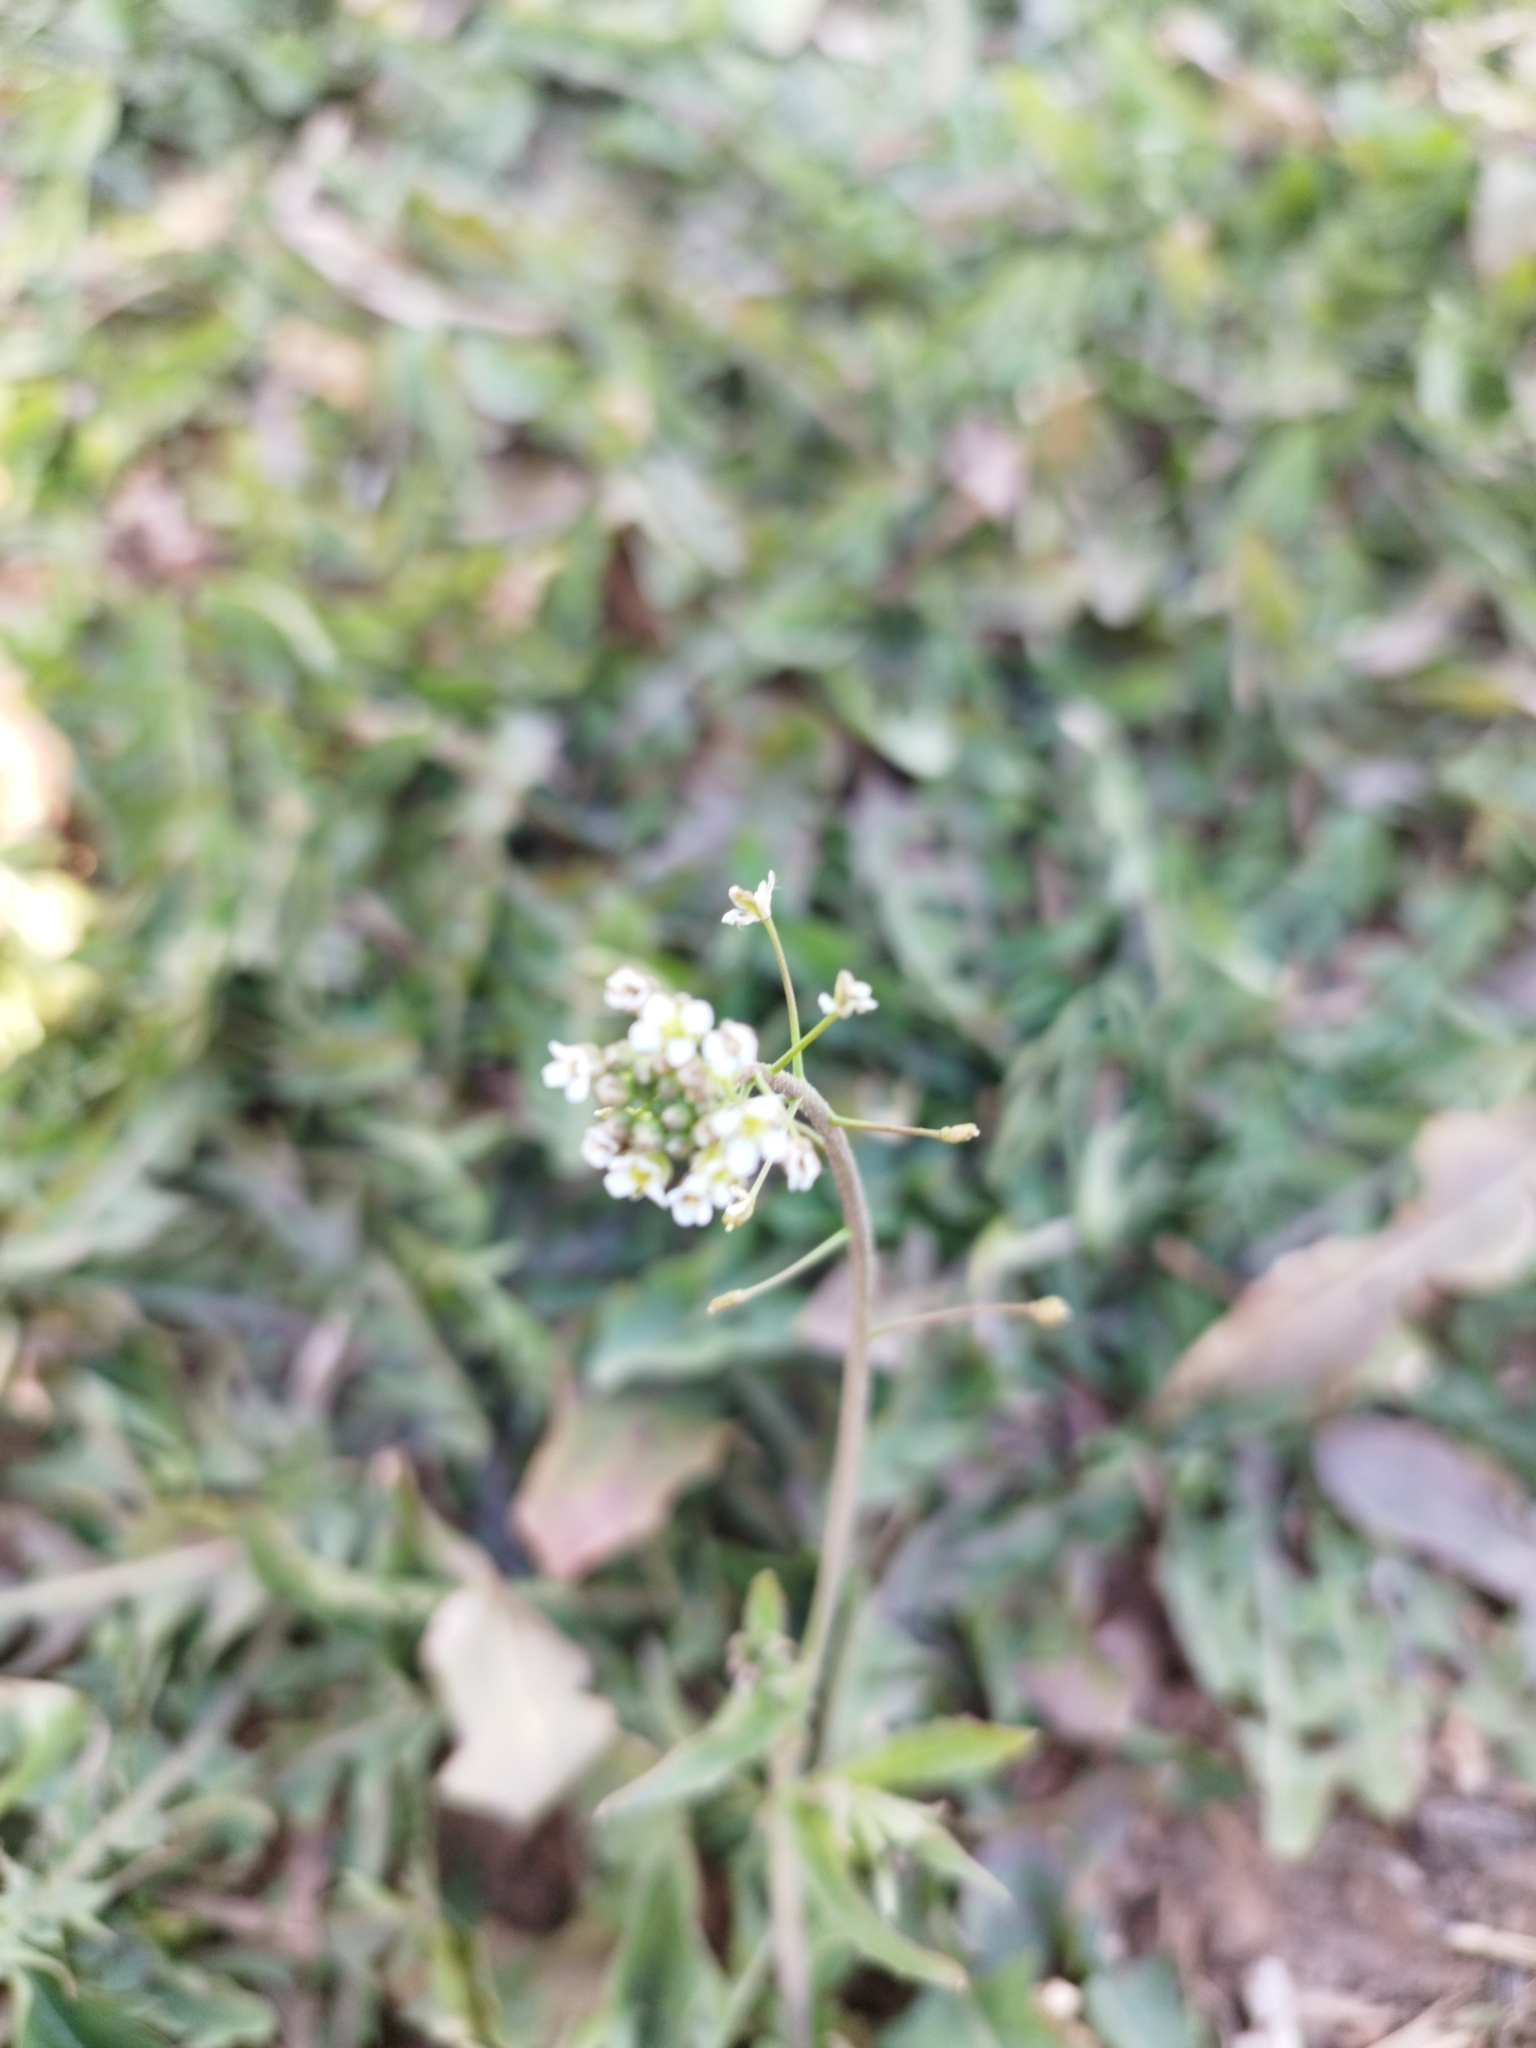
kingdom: Plantae
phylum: Tracheophyta
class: Magnoliopsida
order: Brassicales
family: Brassicaceae
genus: Capsella
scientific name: Capsella bursa-pastoris
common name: Shepherd's purse
